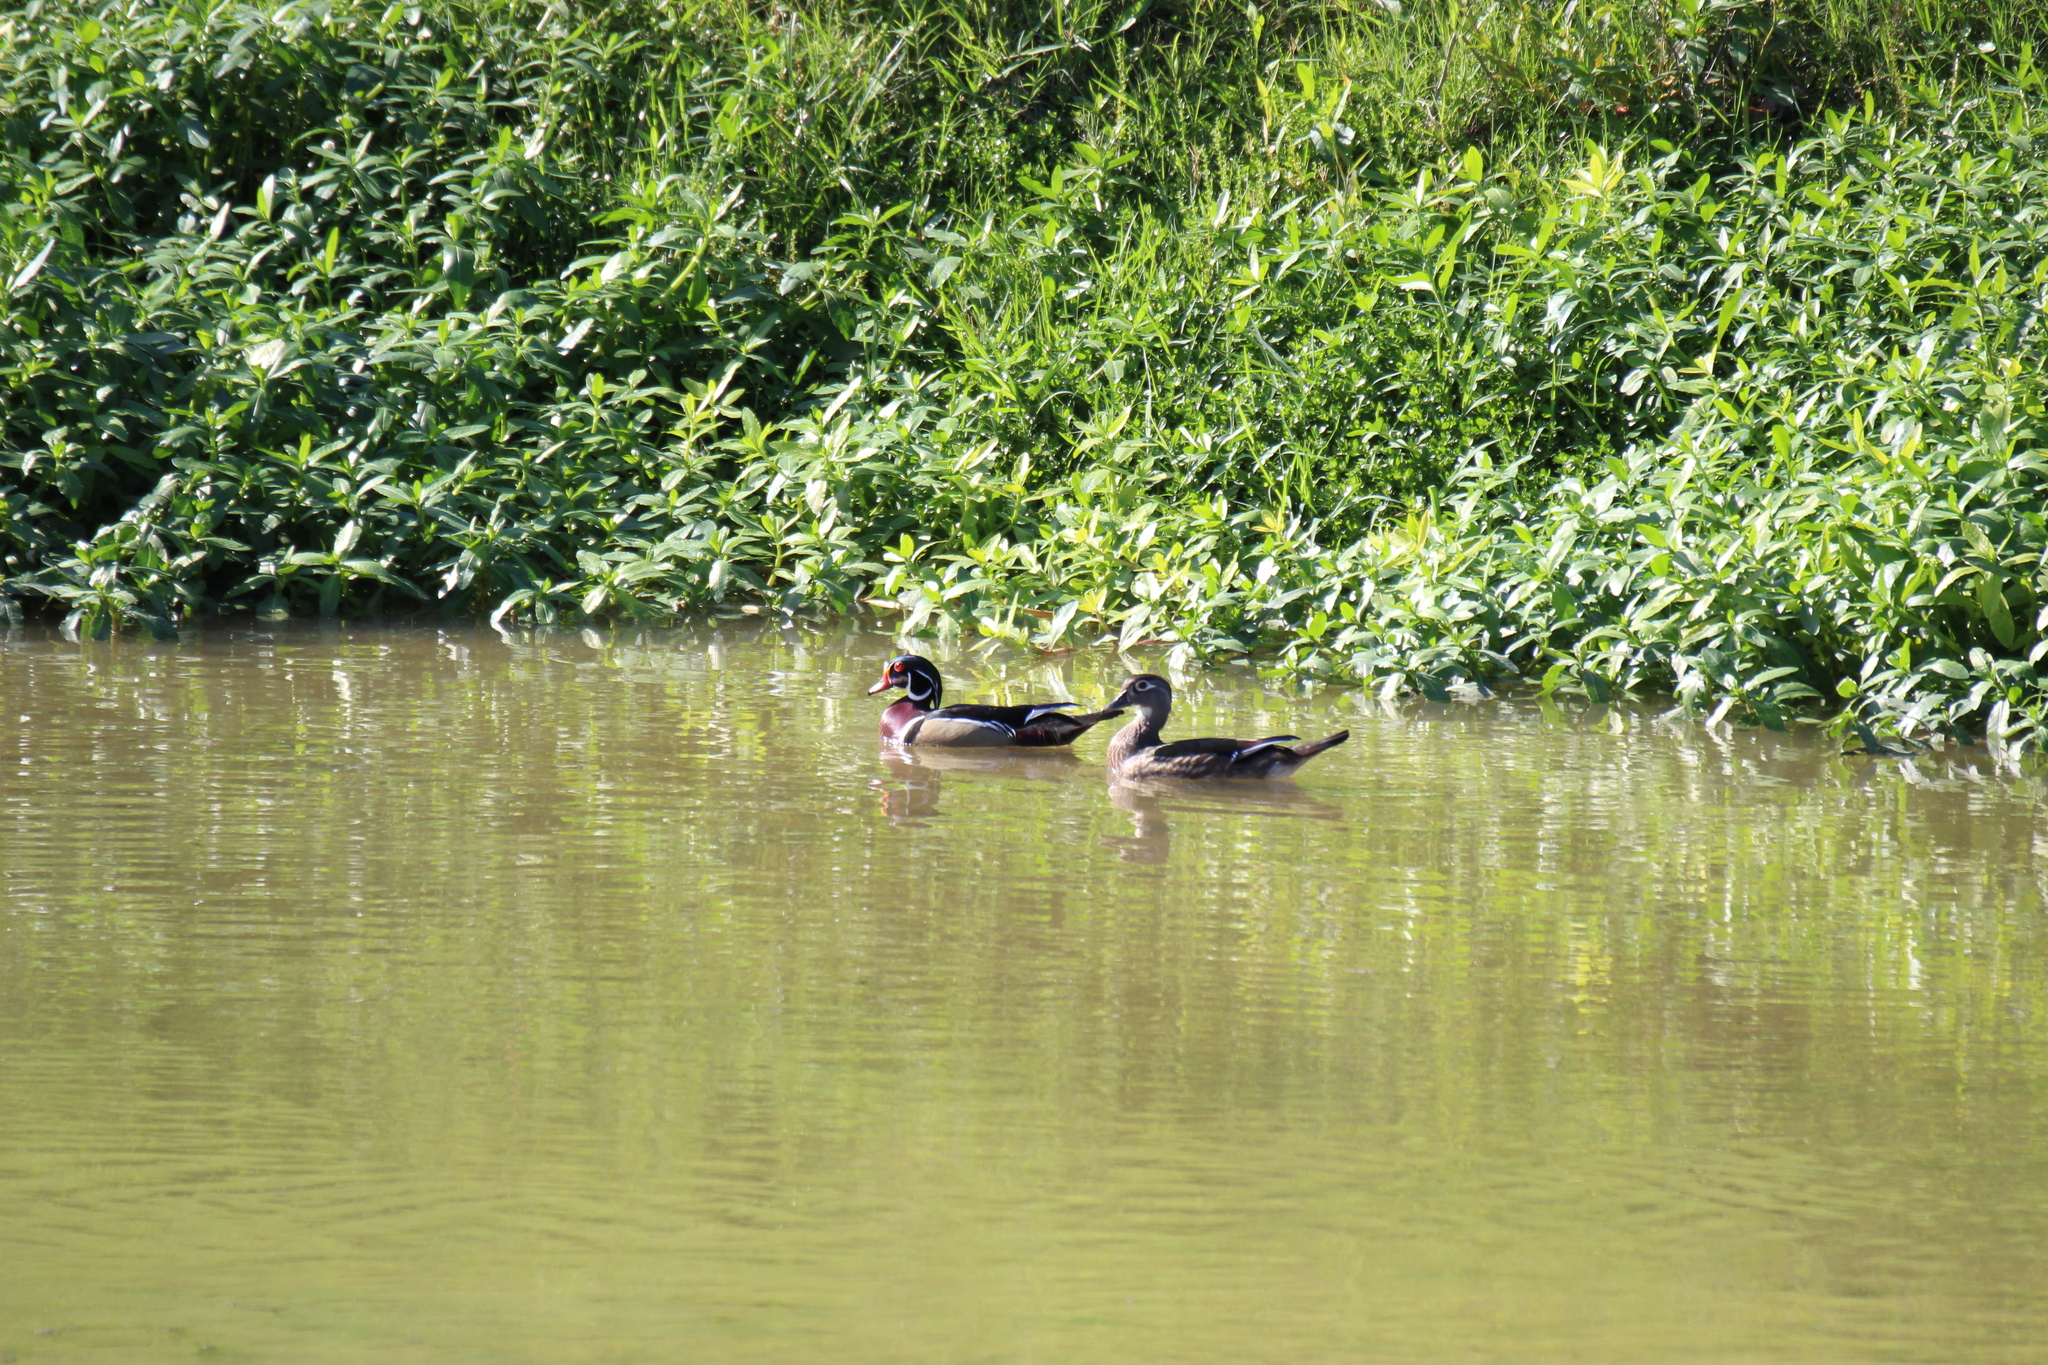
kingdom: Animalia
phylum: Chordata
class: Aves
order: Anseriformes
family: Anatidae
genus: Aix
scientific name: Aix sponsa
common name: Wood duck
